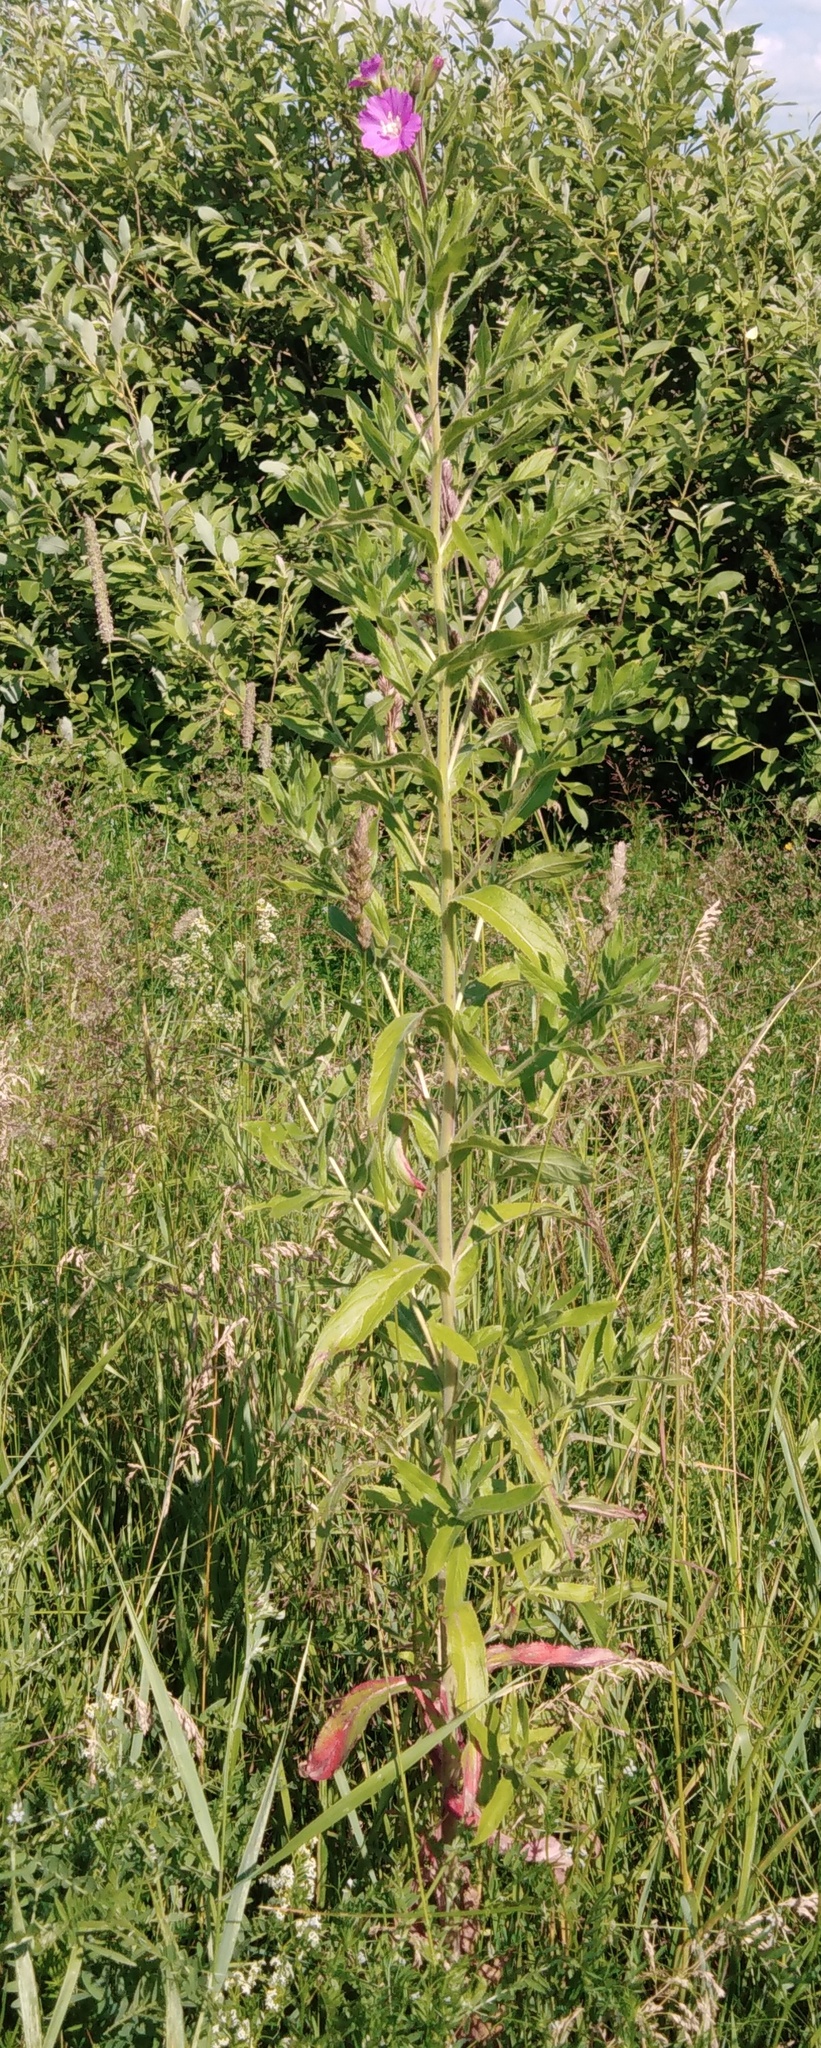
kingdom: Plantae
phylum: Tracheophyta
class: Magnoliopsida
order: Myrtales
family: Onagraceae
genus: Epilobium
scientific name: Epilobium hirsutum
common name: Great willowherb
